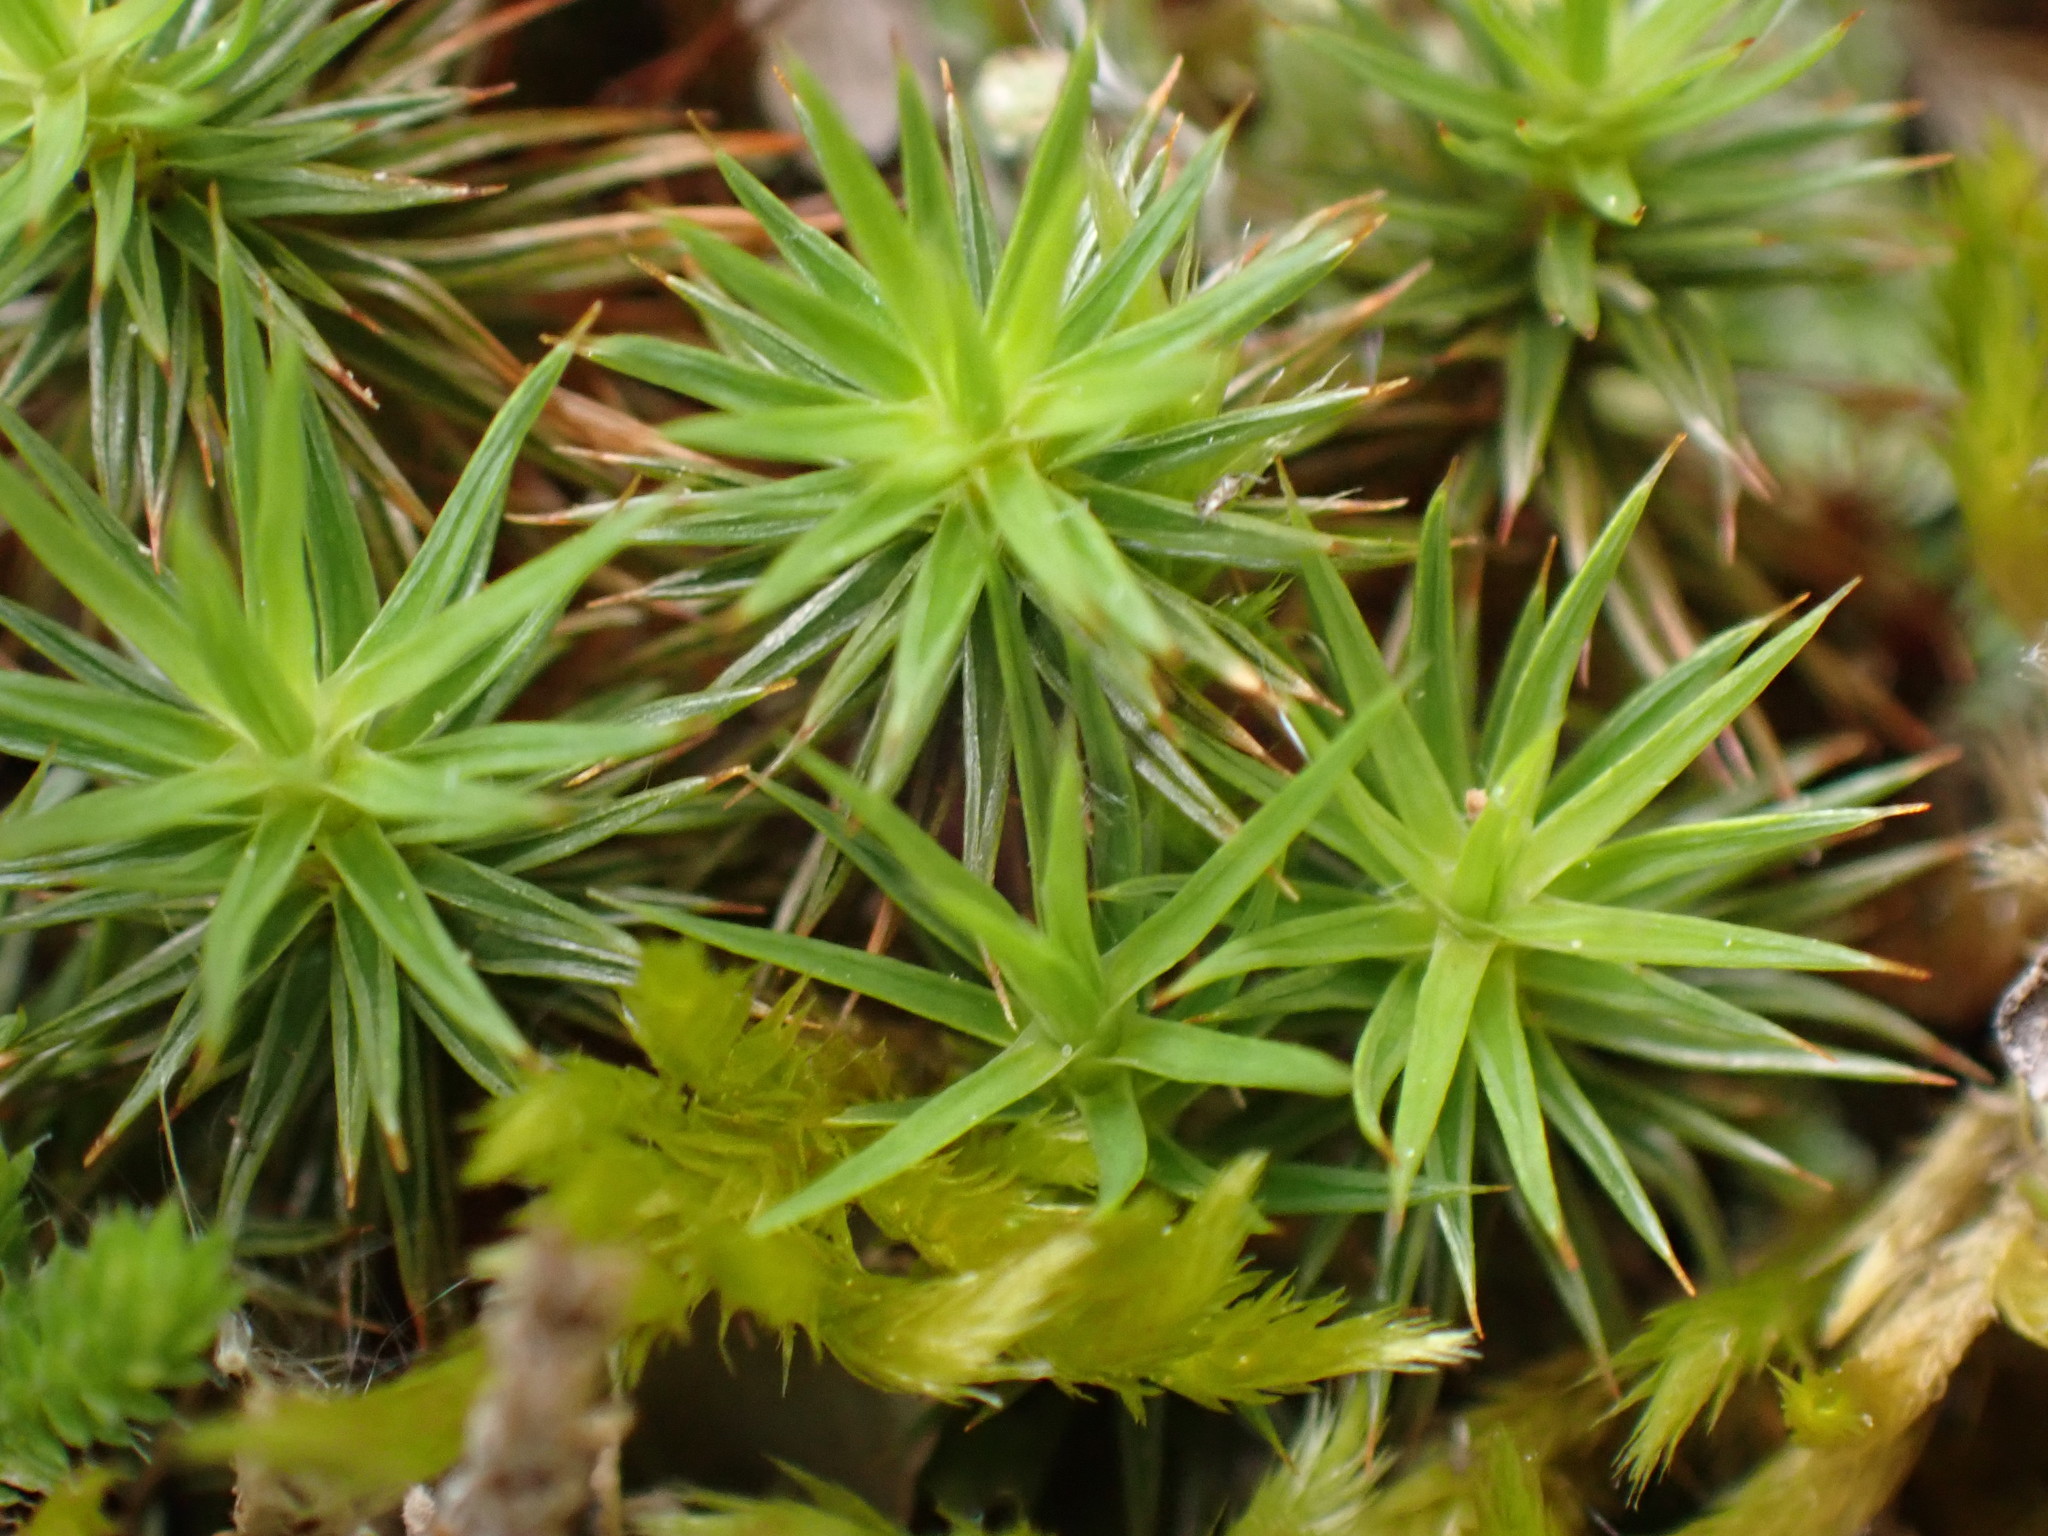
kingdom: Plantae
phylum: Bryophyta
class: Polytrichopsida
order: Polytrichales
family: Polytrichaceae
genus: Polytrichum
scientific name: Polytrichum juniperinum
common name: Juniper haircap moss
